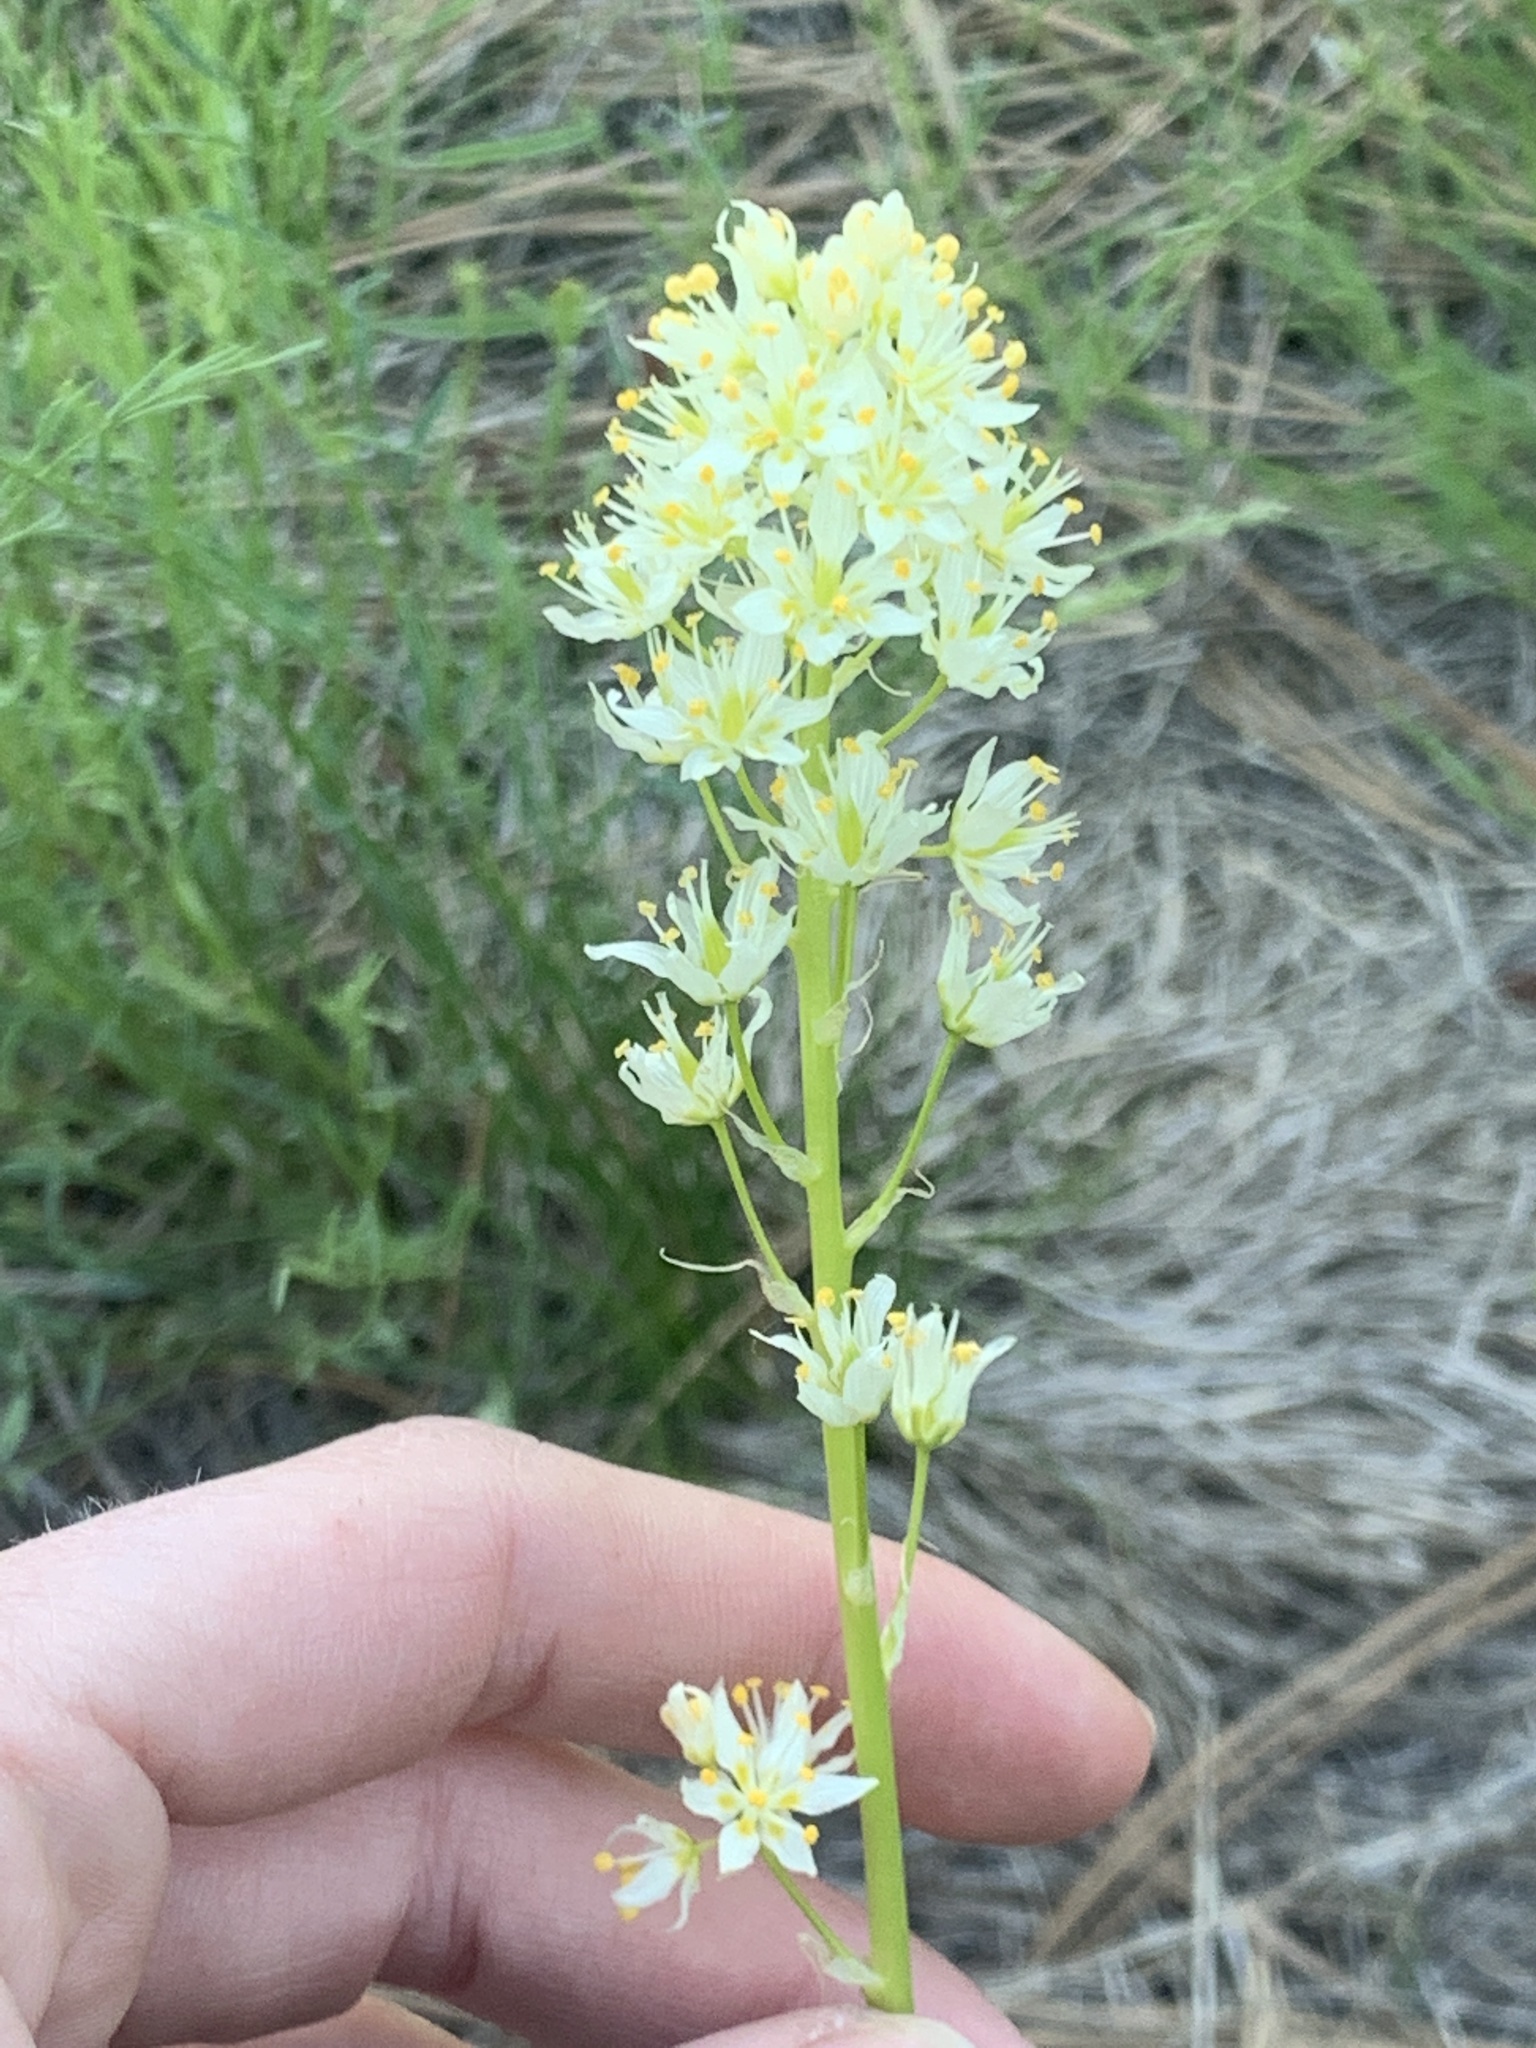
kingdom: Plantae
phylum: Tracheophyta
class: Liliopsida
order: Liliales
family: Melanthiaceae
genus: Toxicoscordion
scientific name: Toxicoscordion venenosum
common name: Meadow death camas
